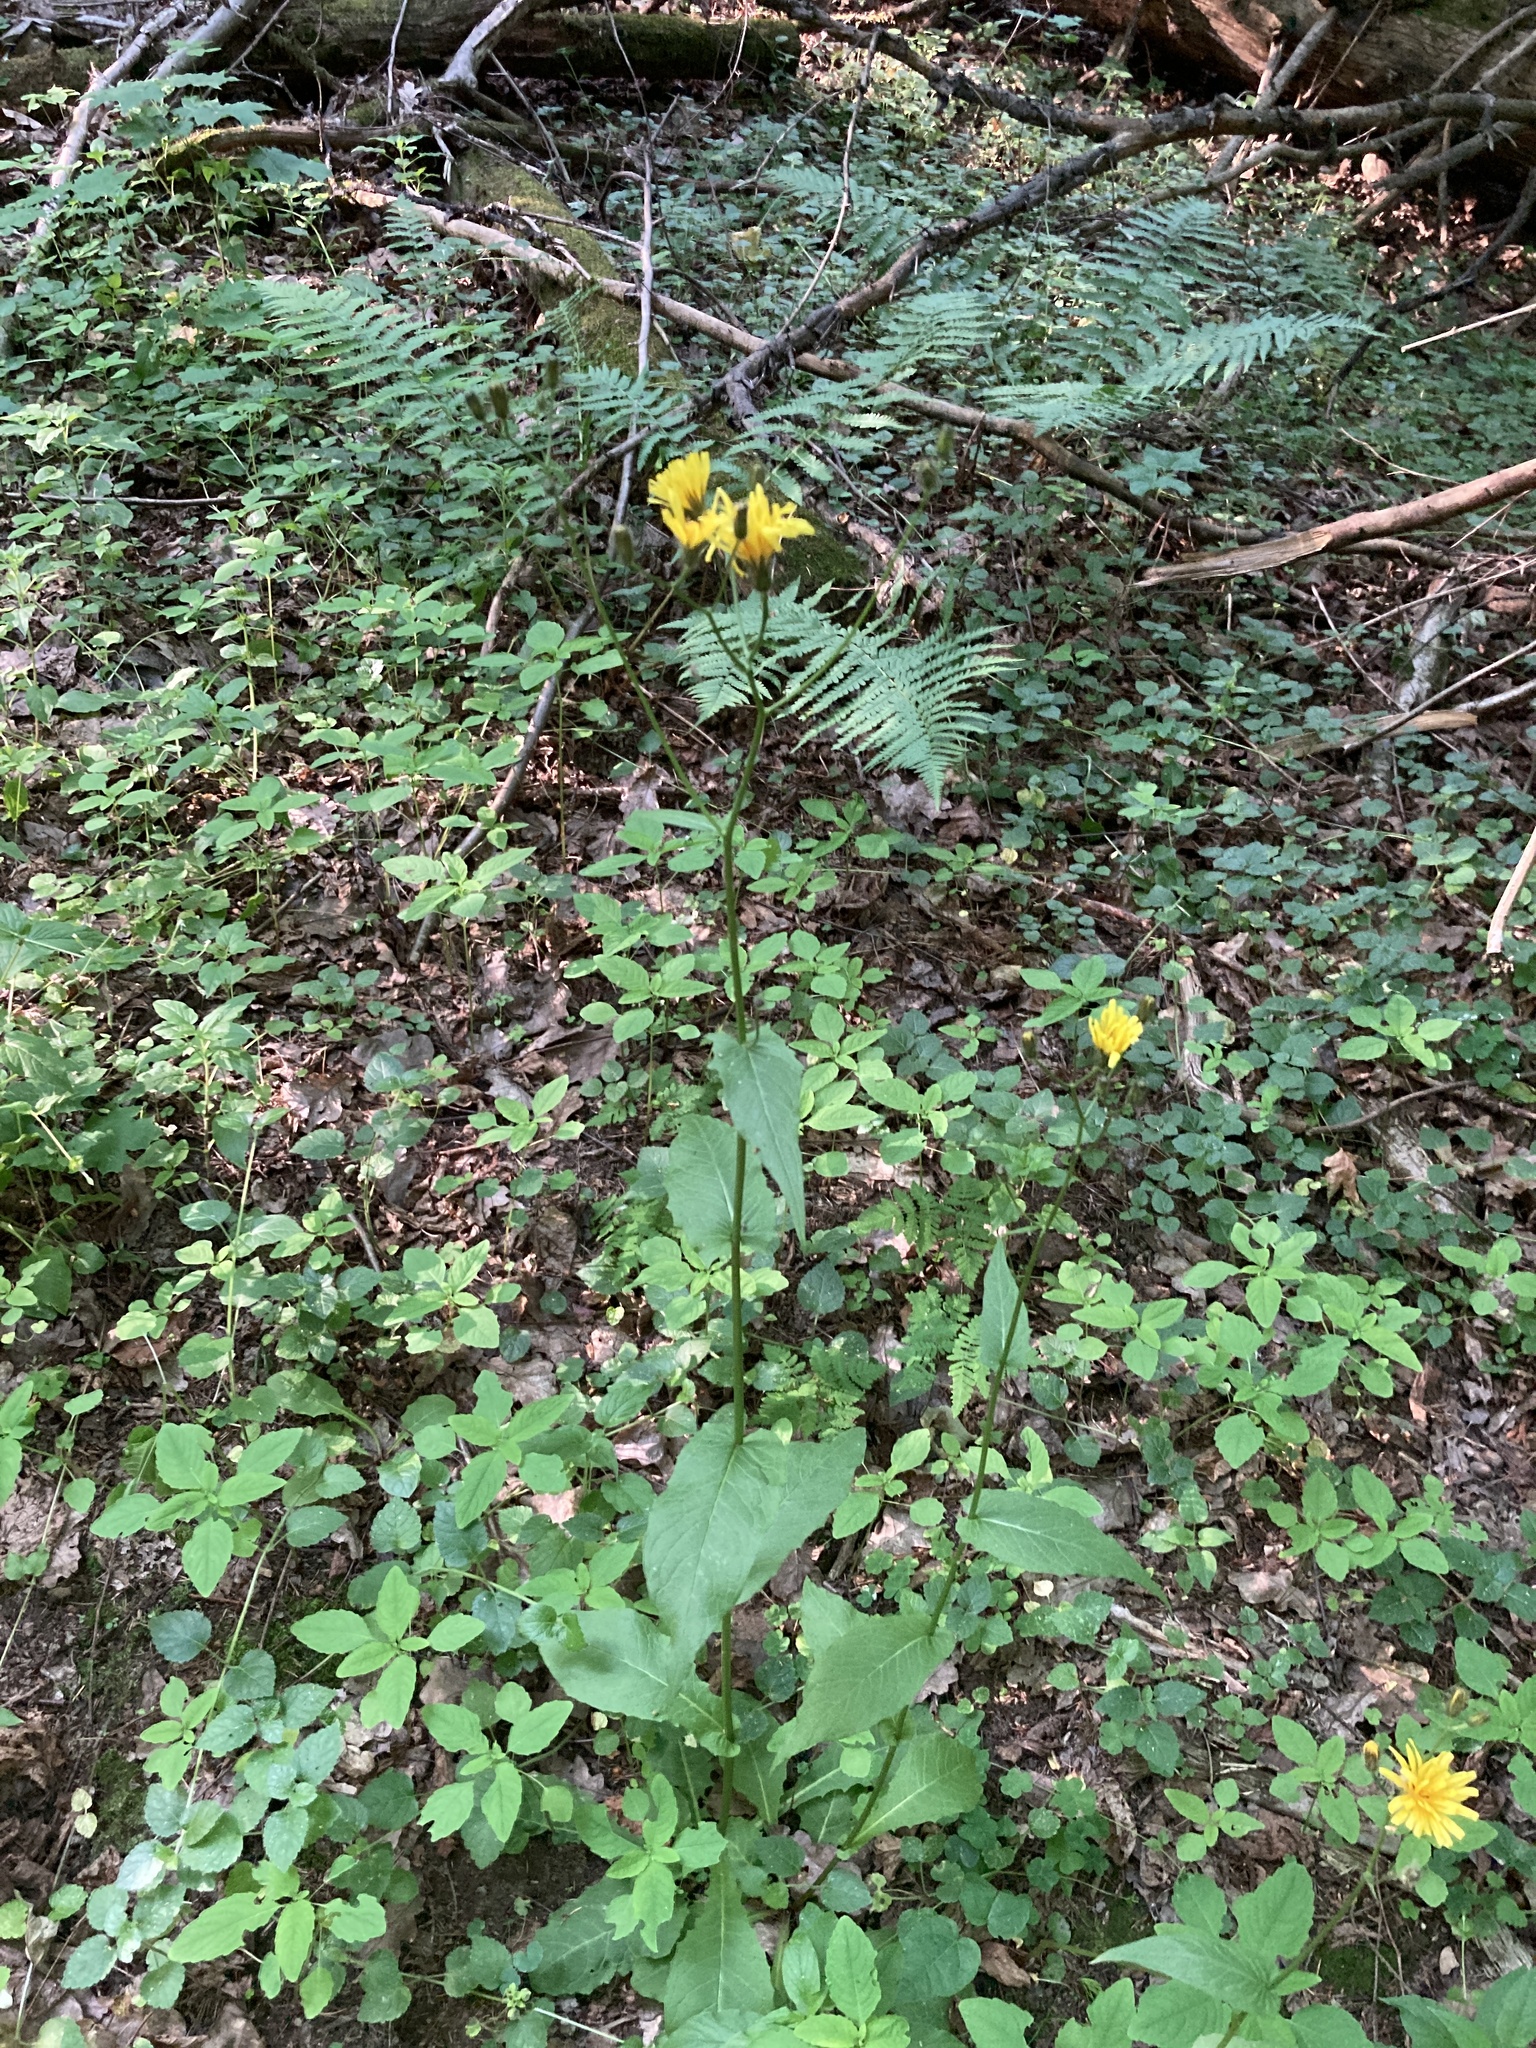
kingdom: Plantae
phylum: Tracheophyta
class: Magnoliopsida
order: Asterales
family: Asteraceae
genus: Crepis
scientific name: Crepis paludosa
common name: Marsh hawk's-beard
